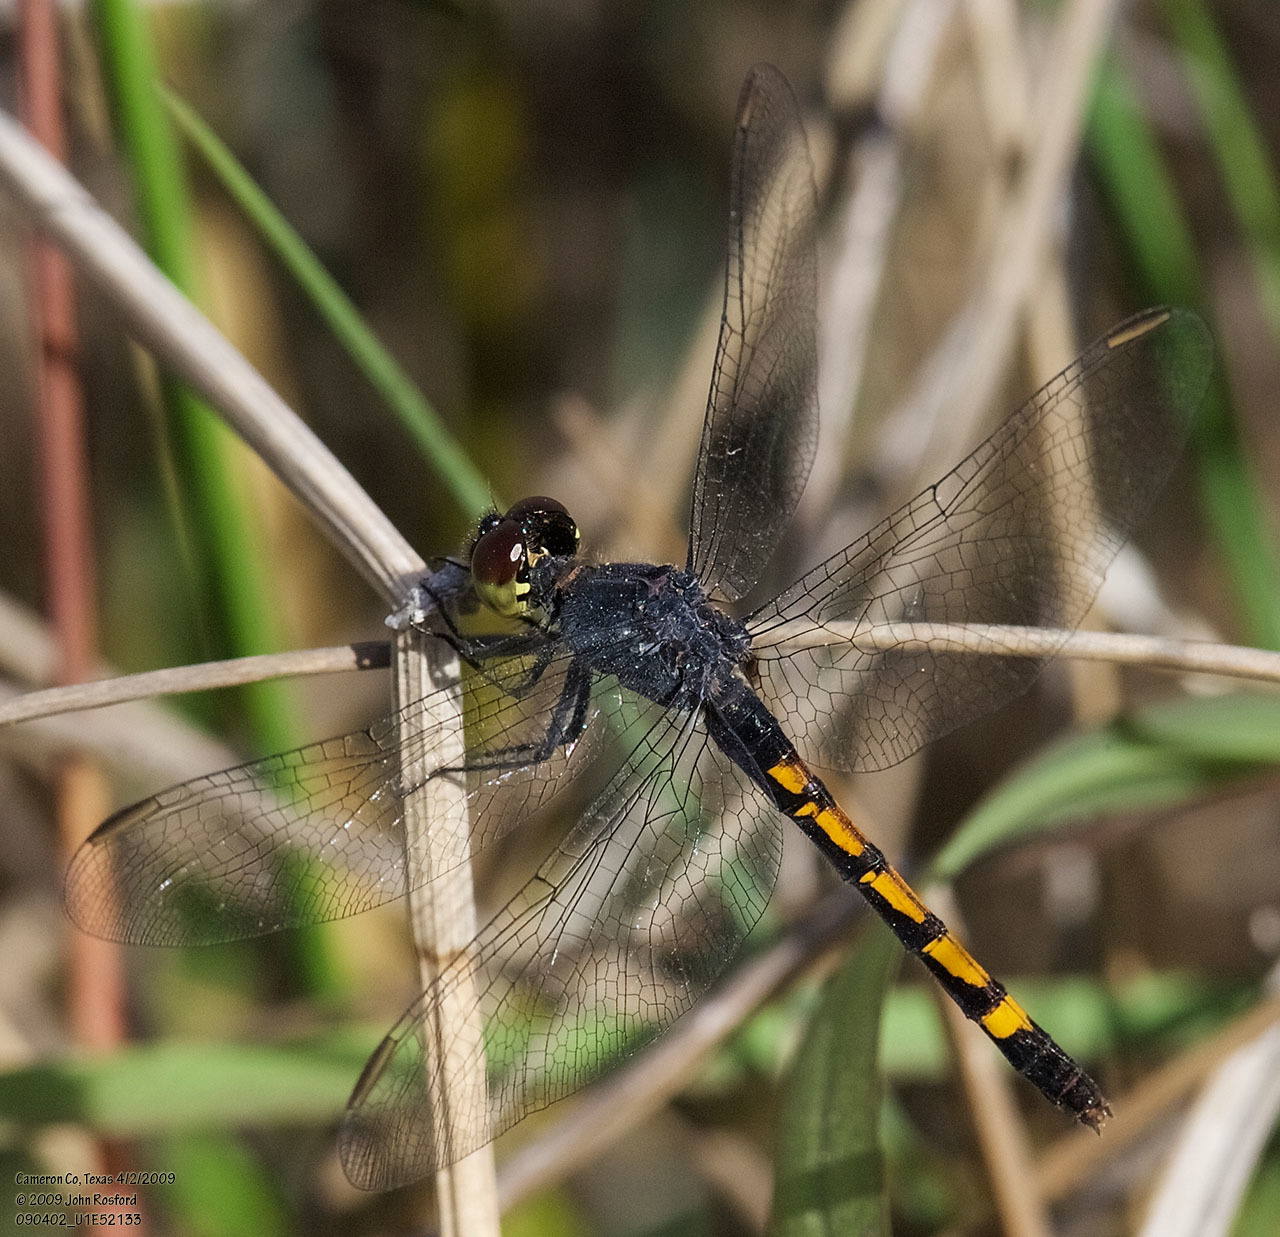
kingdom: Animalia
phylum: Arthropoda
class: Insecta
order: Odonata
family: Libellulidae
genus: Erythrodiplax
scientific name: Erythrodiplax berenice
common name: Seaside dragonlet
